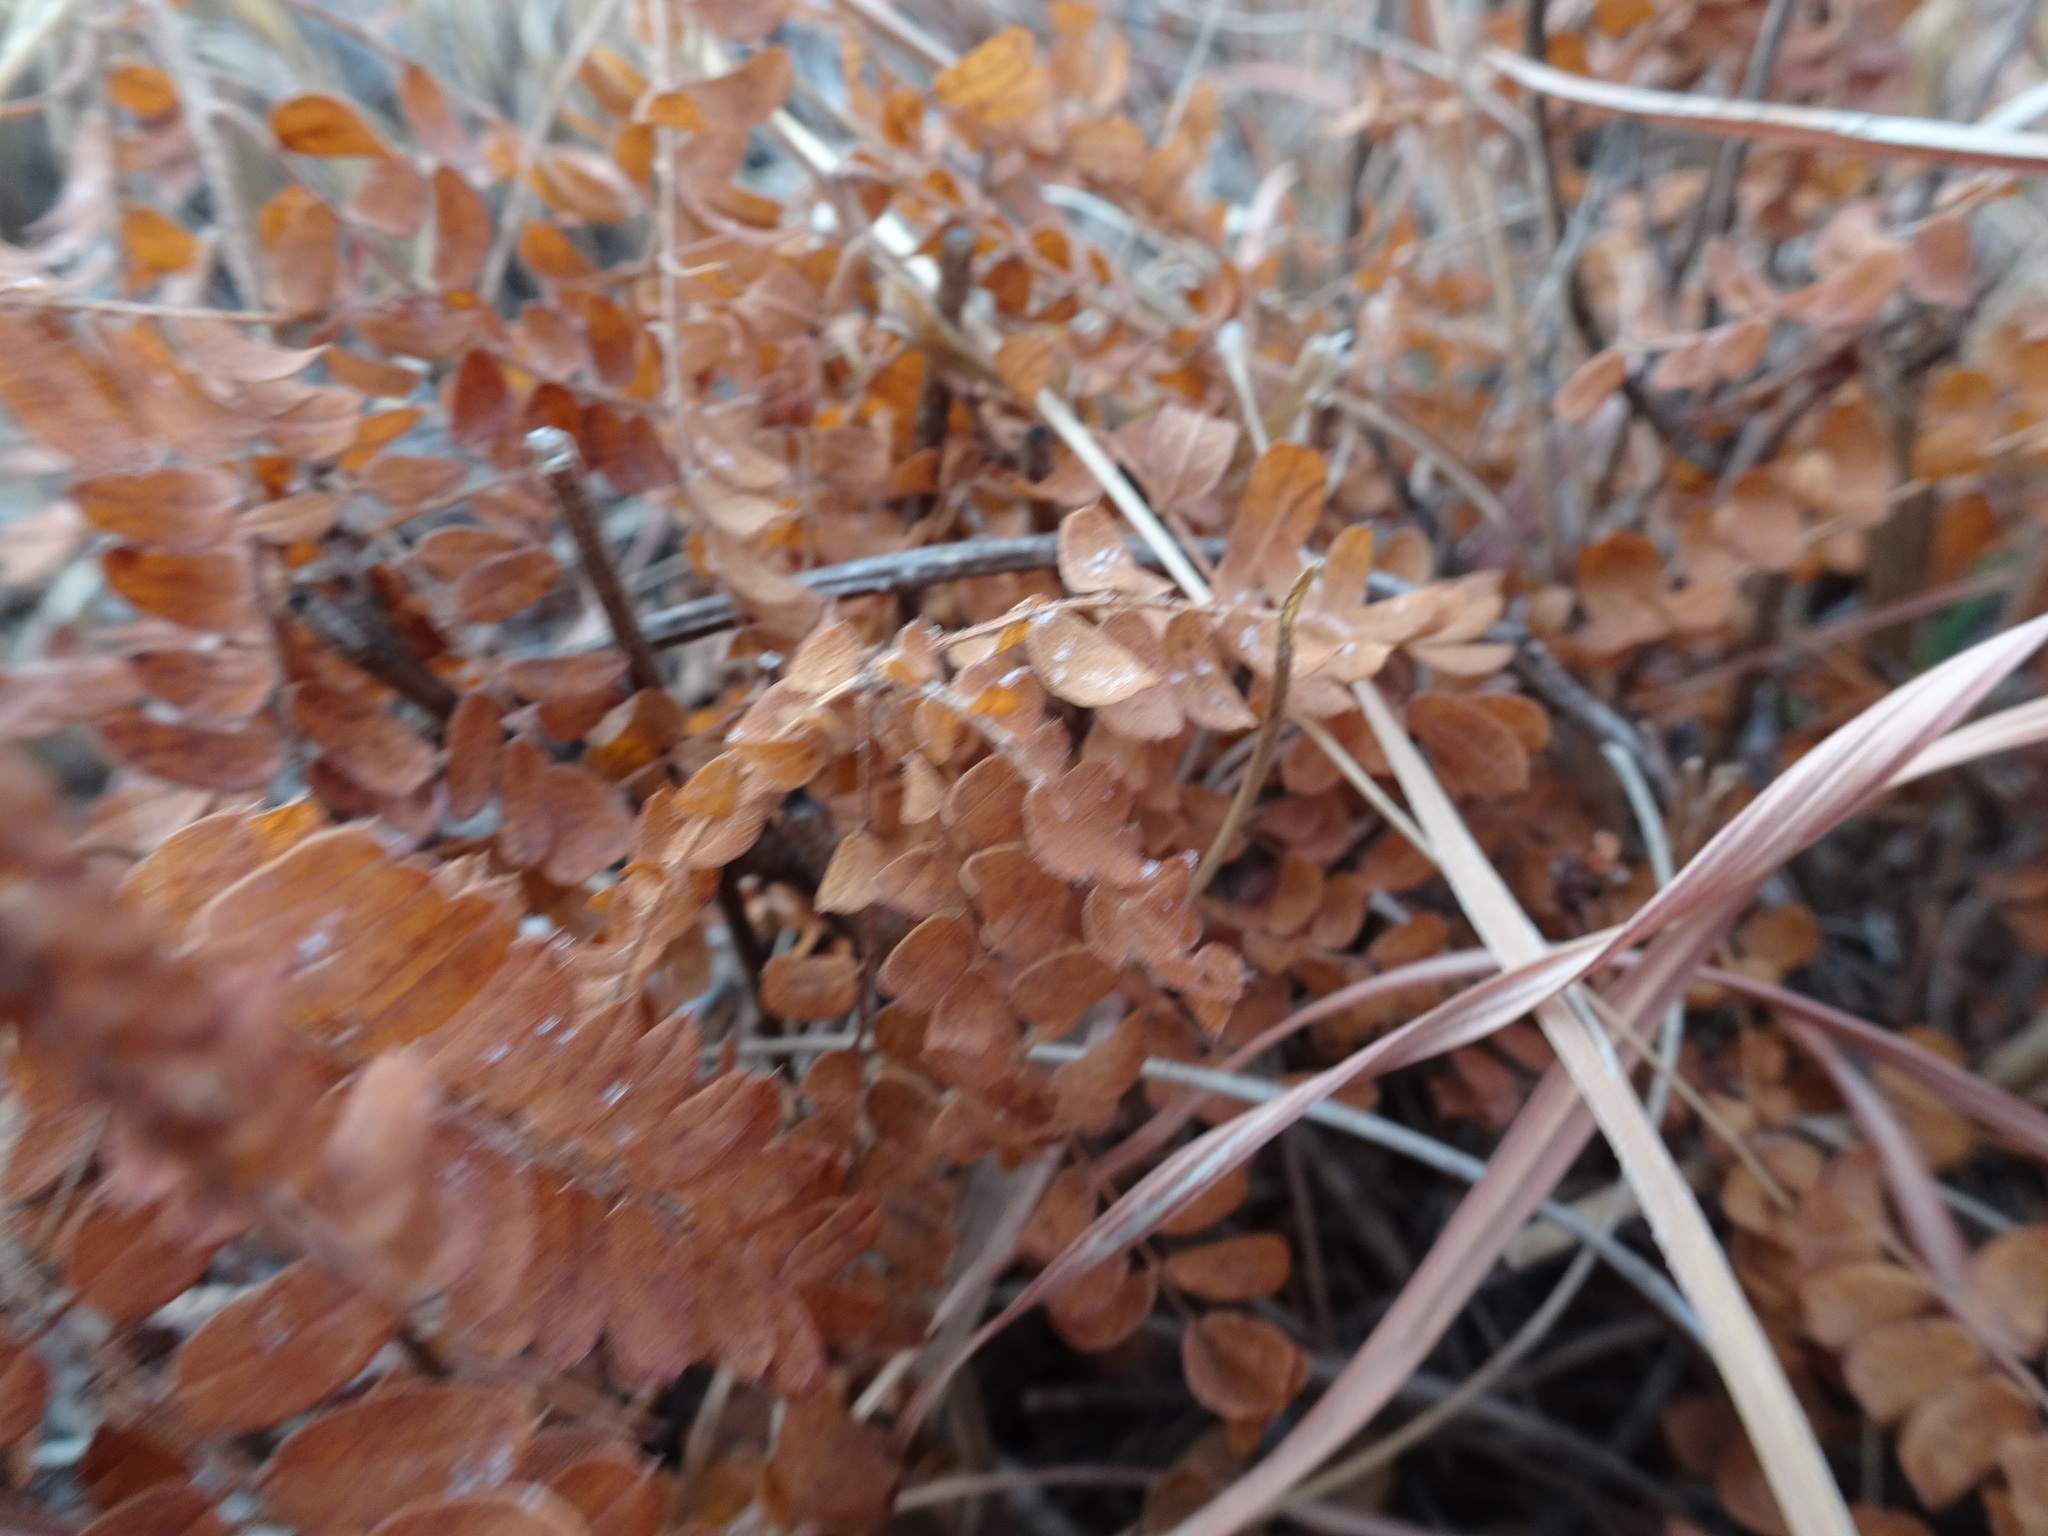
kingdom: Plantae
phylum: Tracheophyta
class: Magnoliopsida
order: Fabales
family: Fabaceae
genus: Amorpha
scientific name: Amorpha canescens
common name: Leadplant
